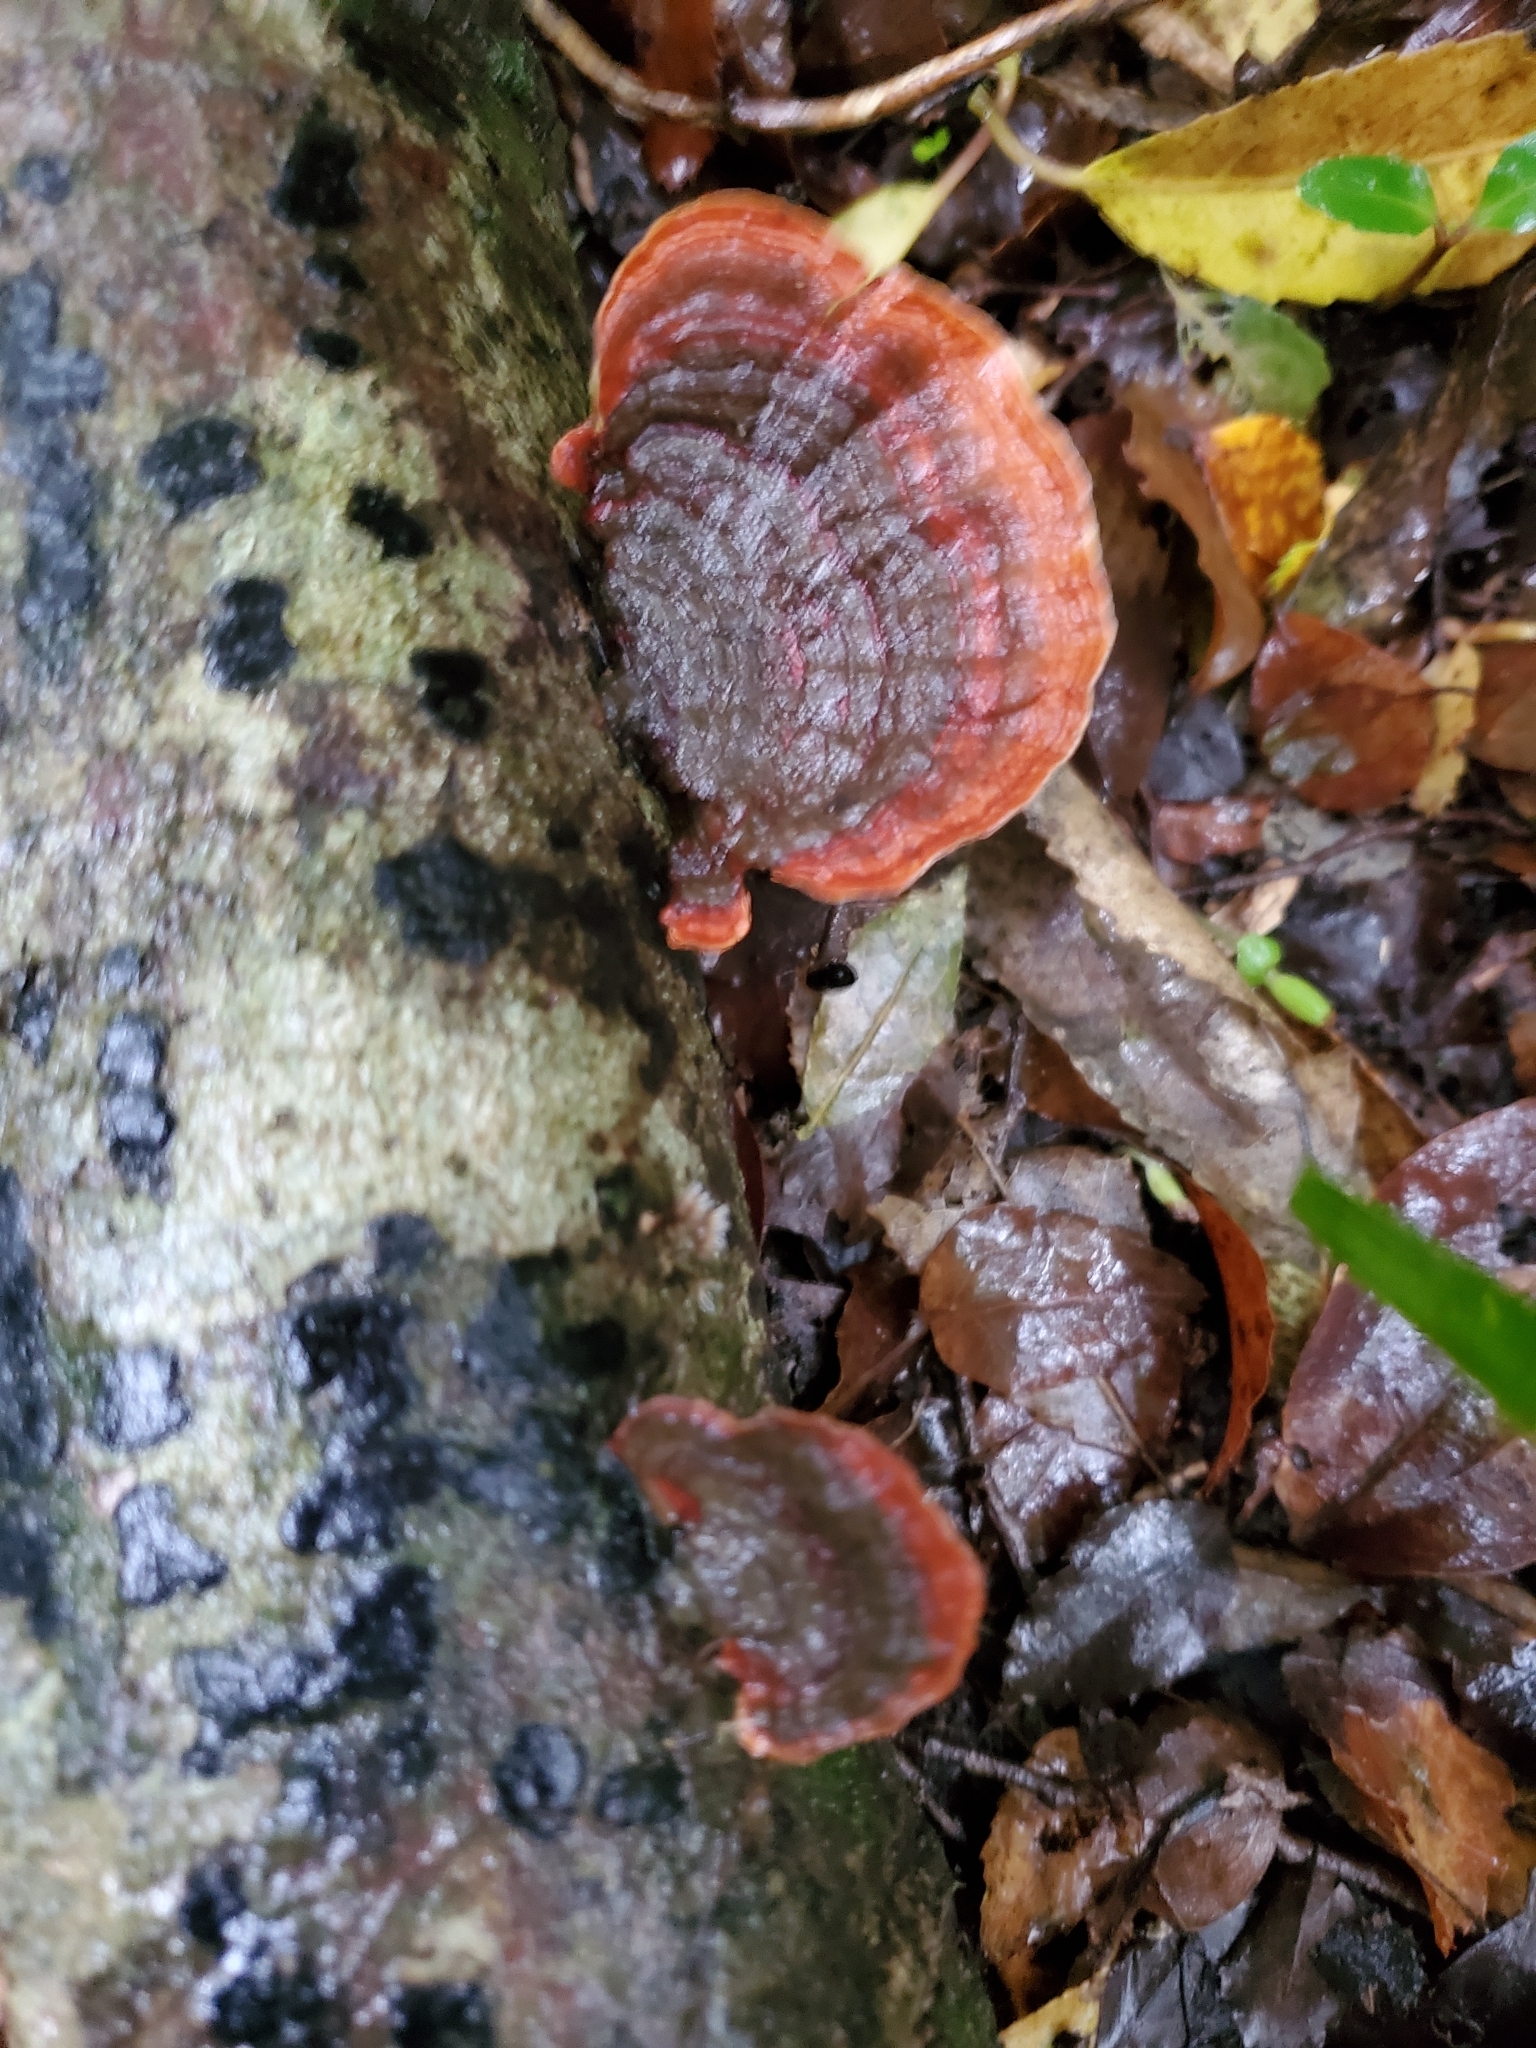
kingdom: Fungi
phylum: Basidiomycota
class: Agaricomycetes
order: Russulales
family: Stereaceae
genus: Stereum
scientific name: Stereum versicolor
